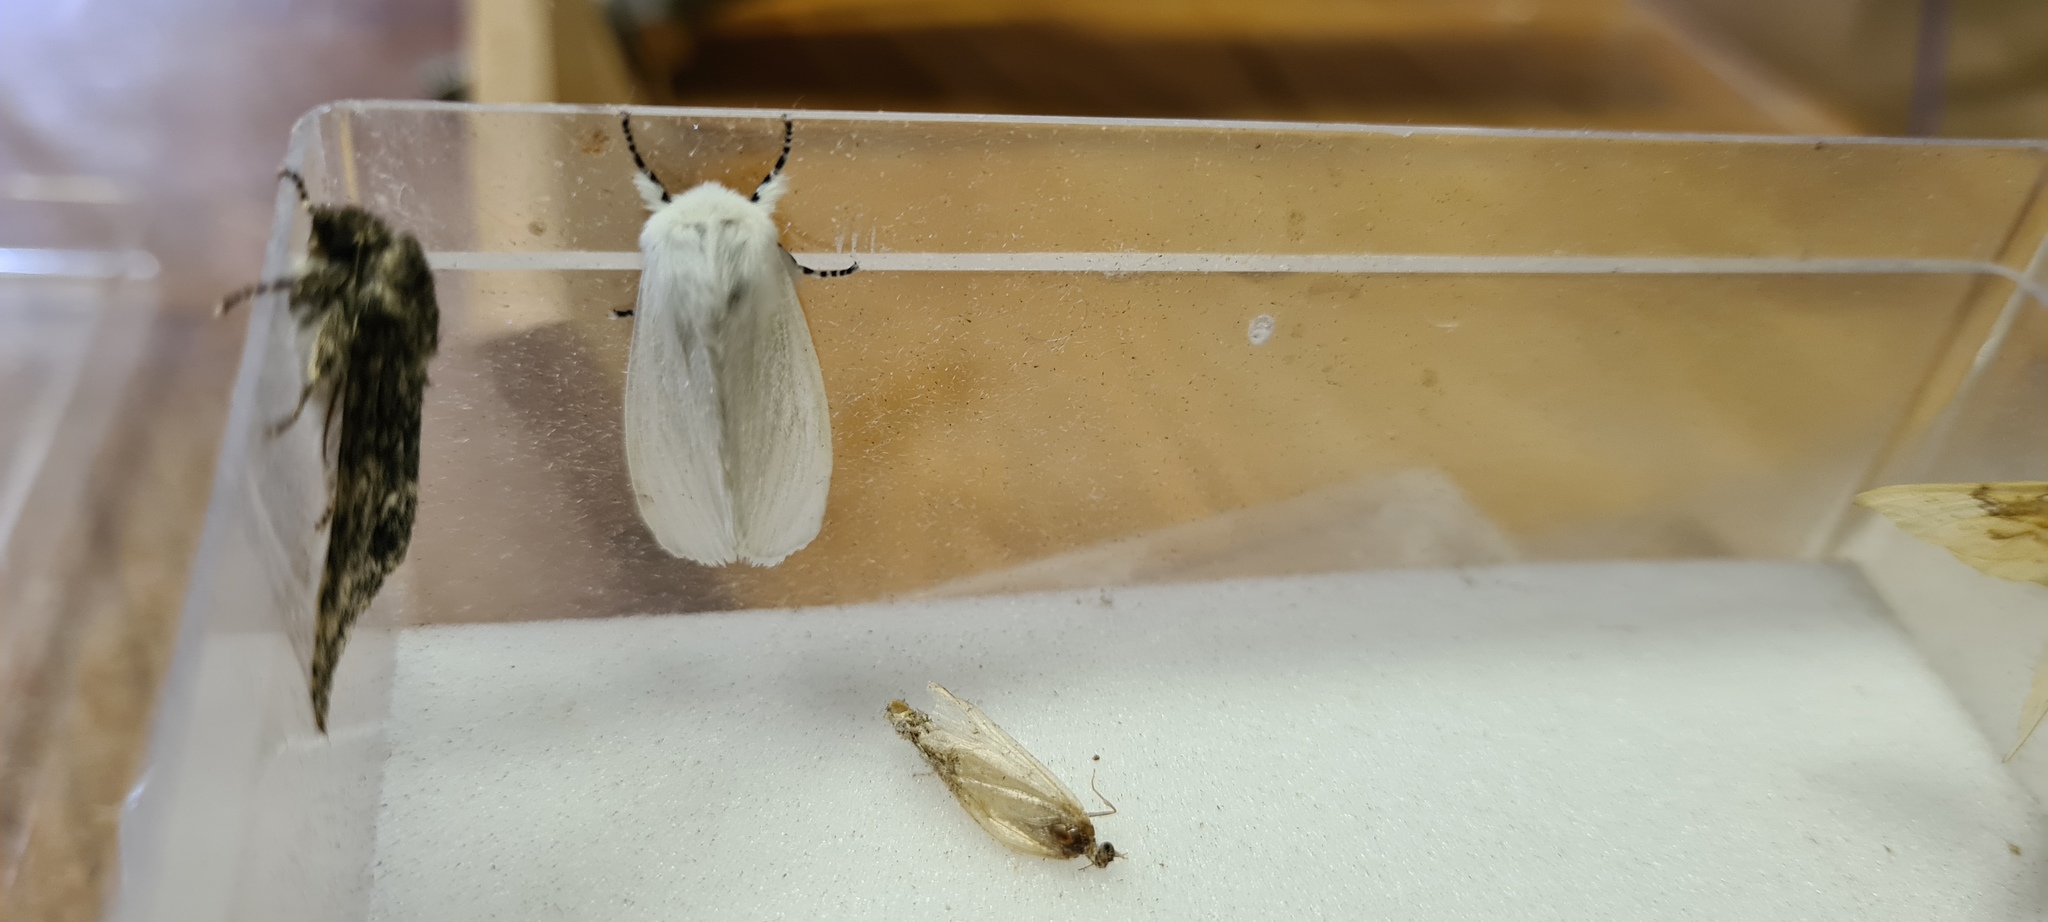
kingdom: Animalia
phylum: Arthropoda
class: Insecta
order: Lepidoptera
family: Erebidae
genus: Leucoma
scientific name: Leucoma salicis
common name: White satin moth
